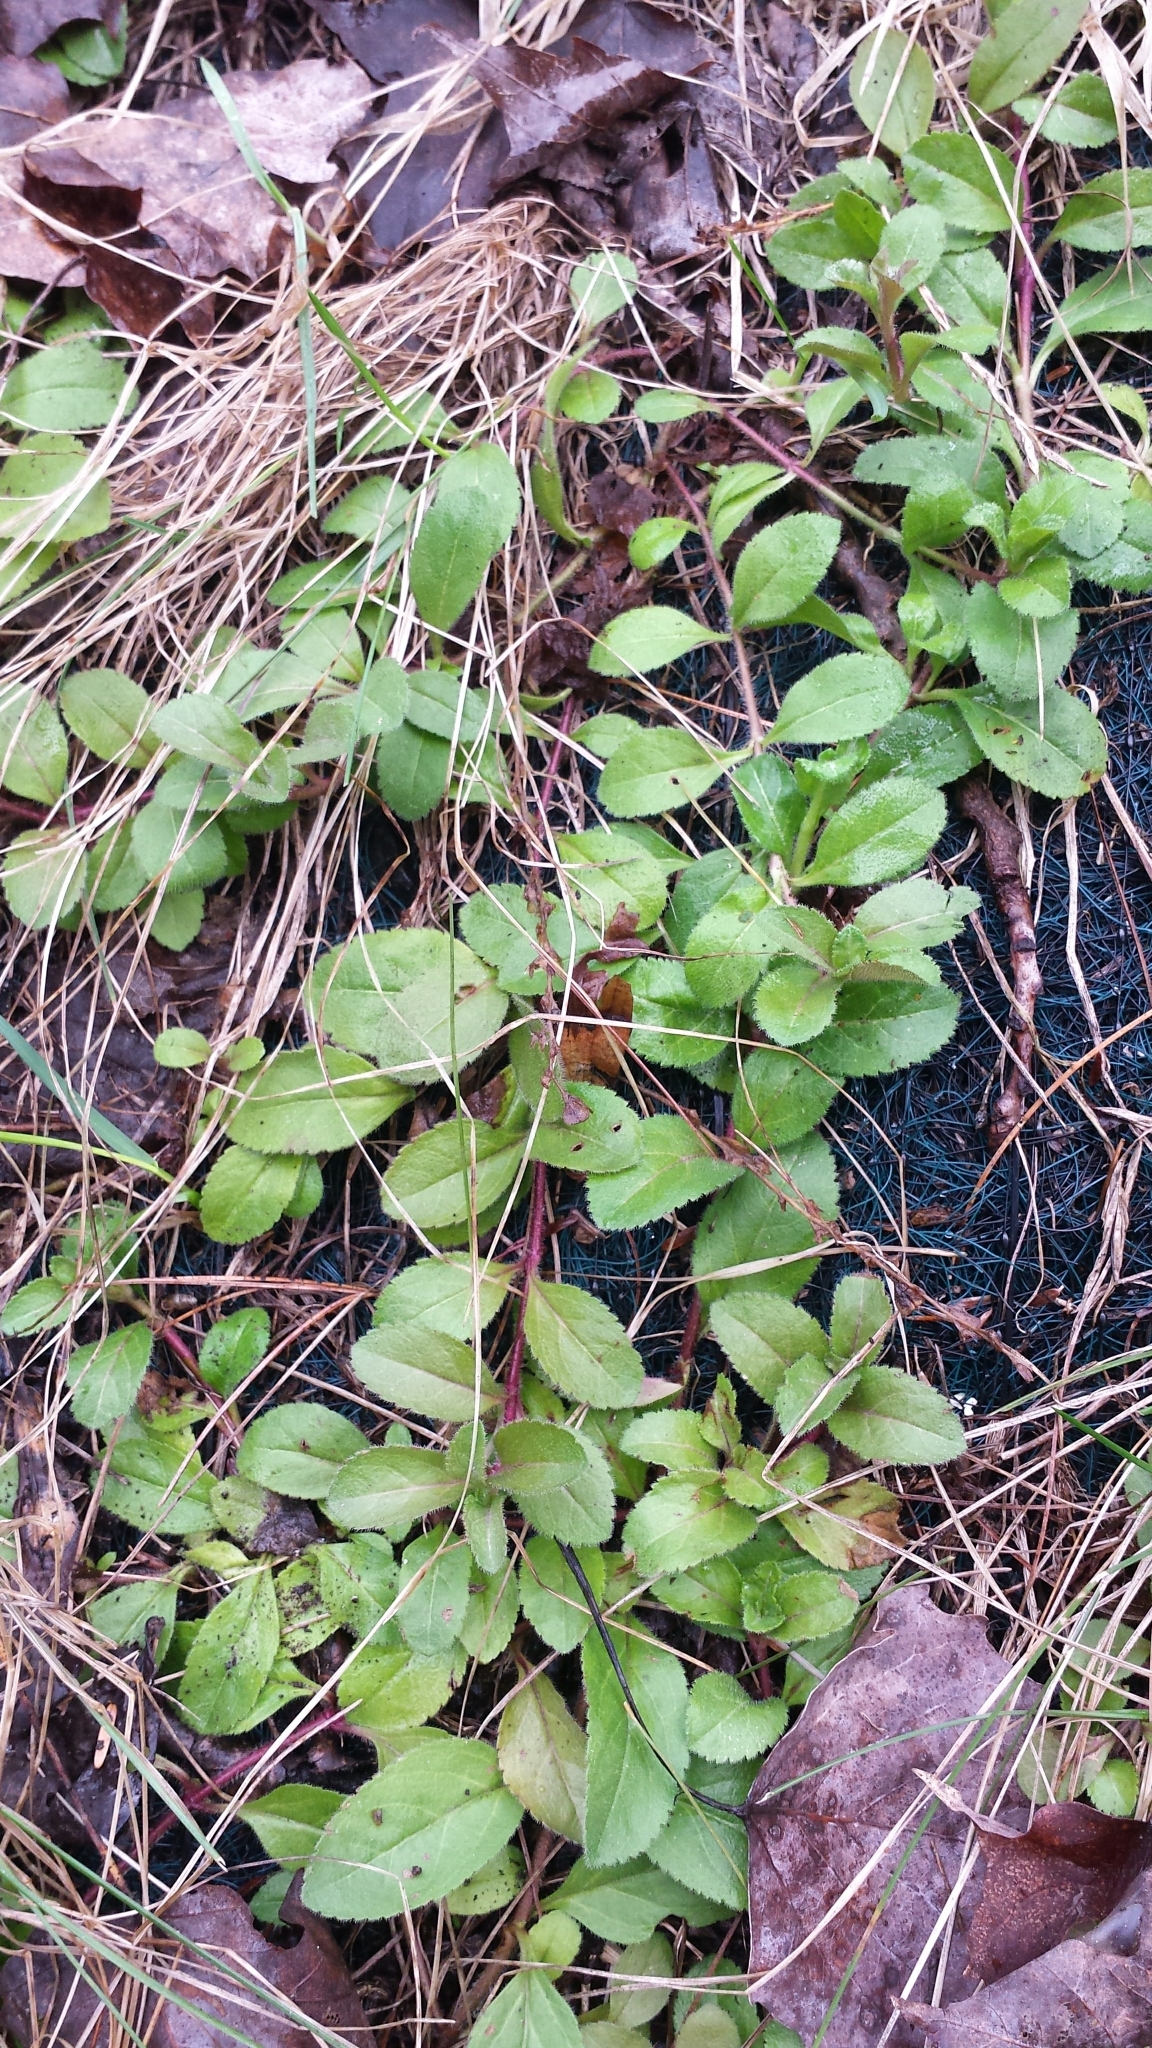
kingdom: Plantae
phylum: Tracheophyta
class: Magnoliopsida
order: Lamiales
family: Plantaginaceae
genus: Veronica
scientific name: Veronica officinalis
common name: Common speedwell
